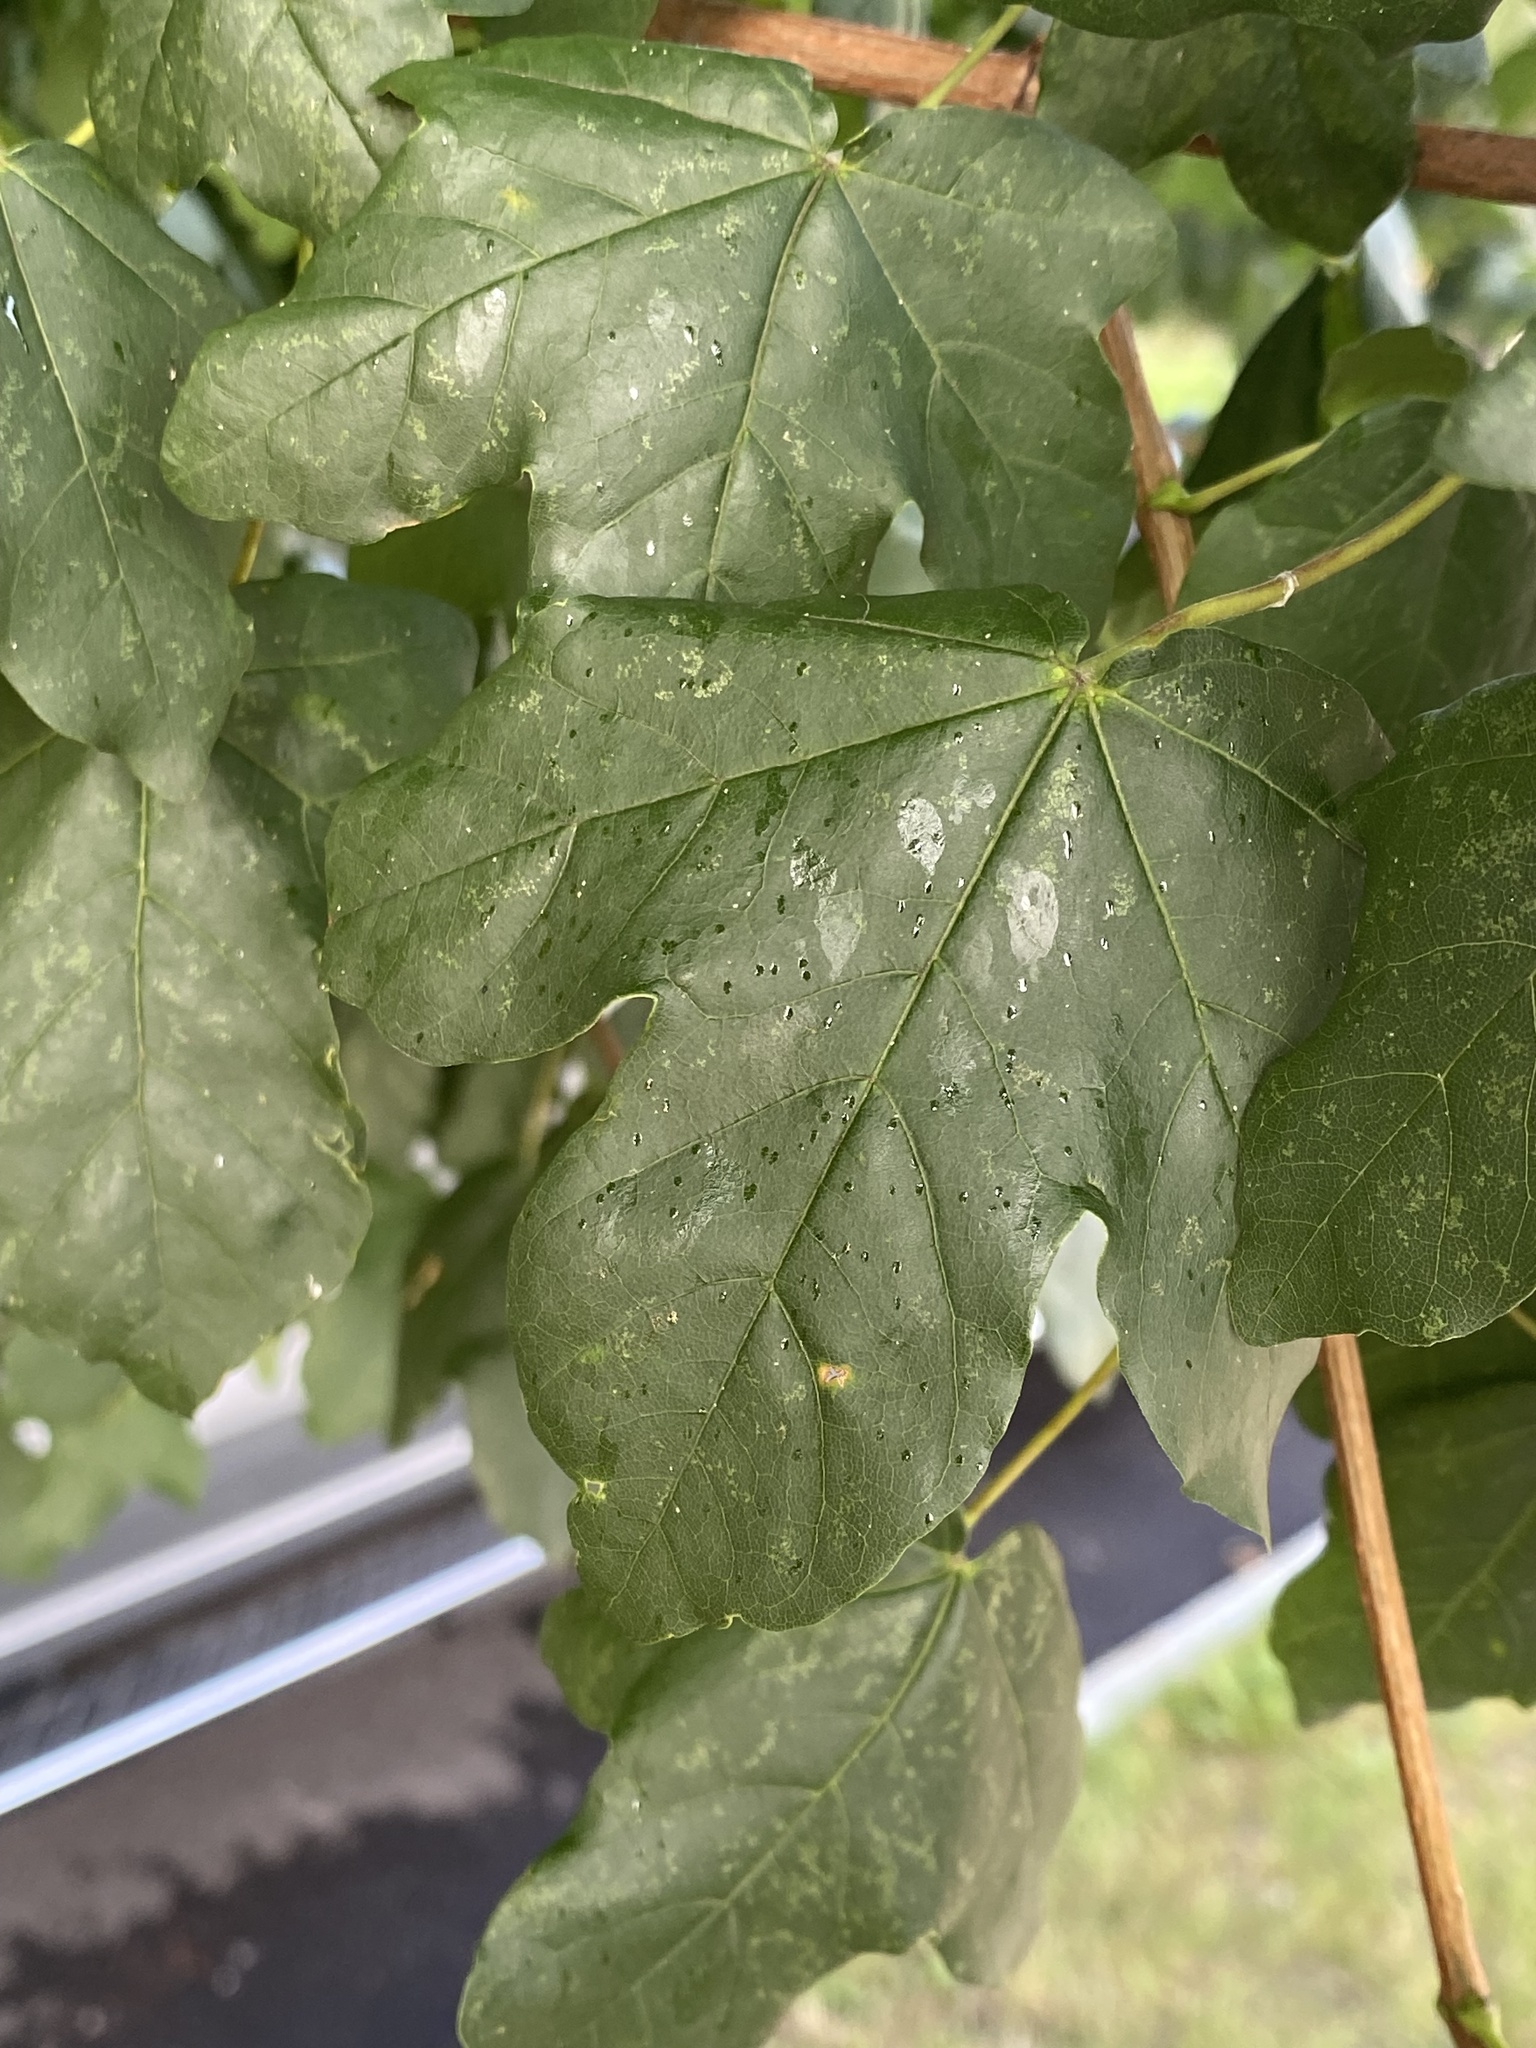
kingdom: Plantae
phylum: Tracheophyta
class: Magnoliopsida
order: Sapindales
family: Sapindaceae
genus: Acer
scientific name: Acer campestre
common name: Field maple
